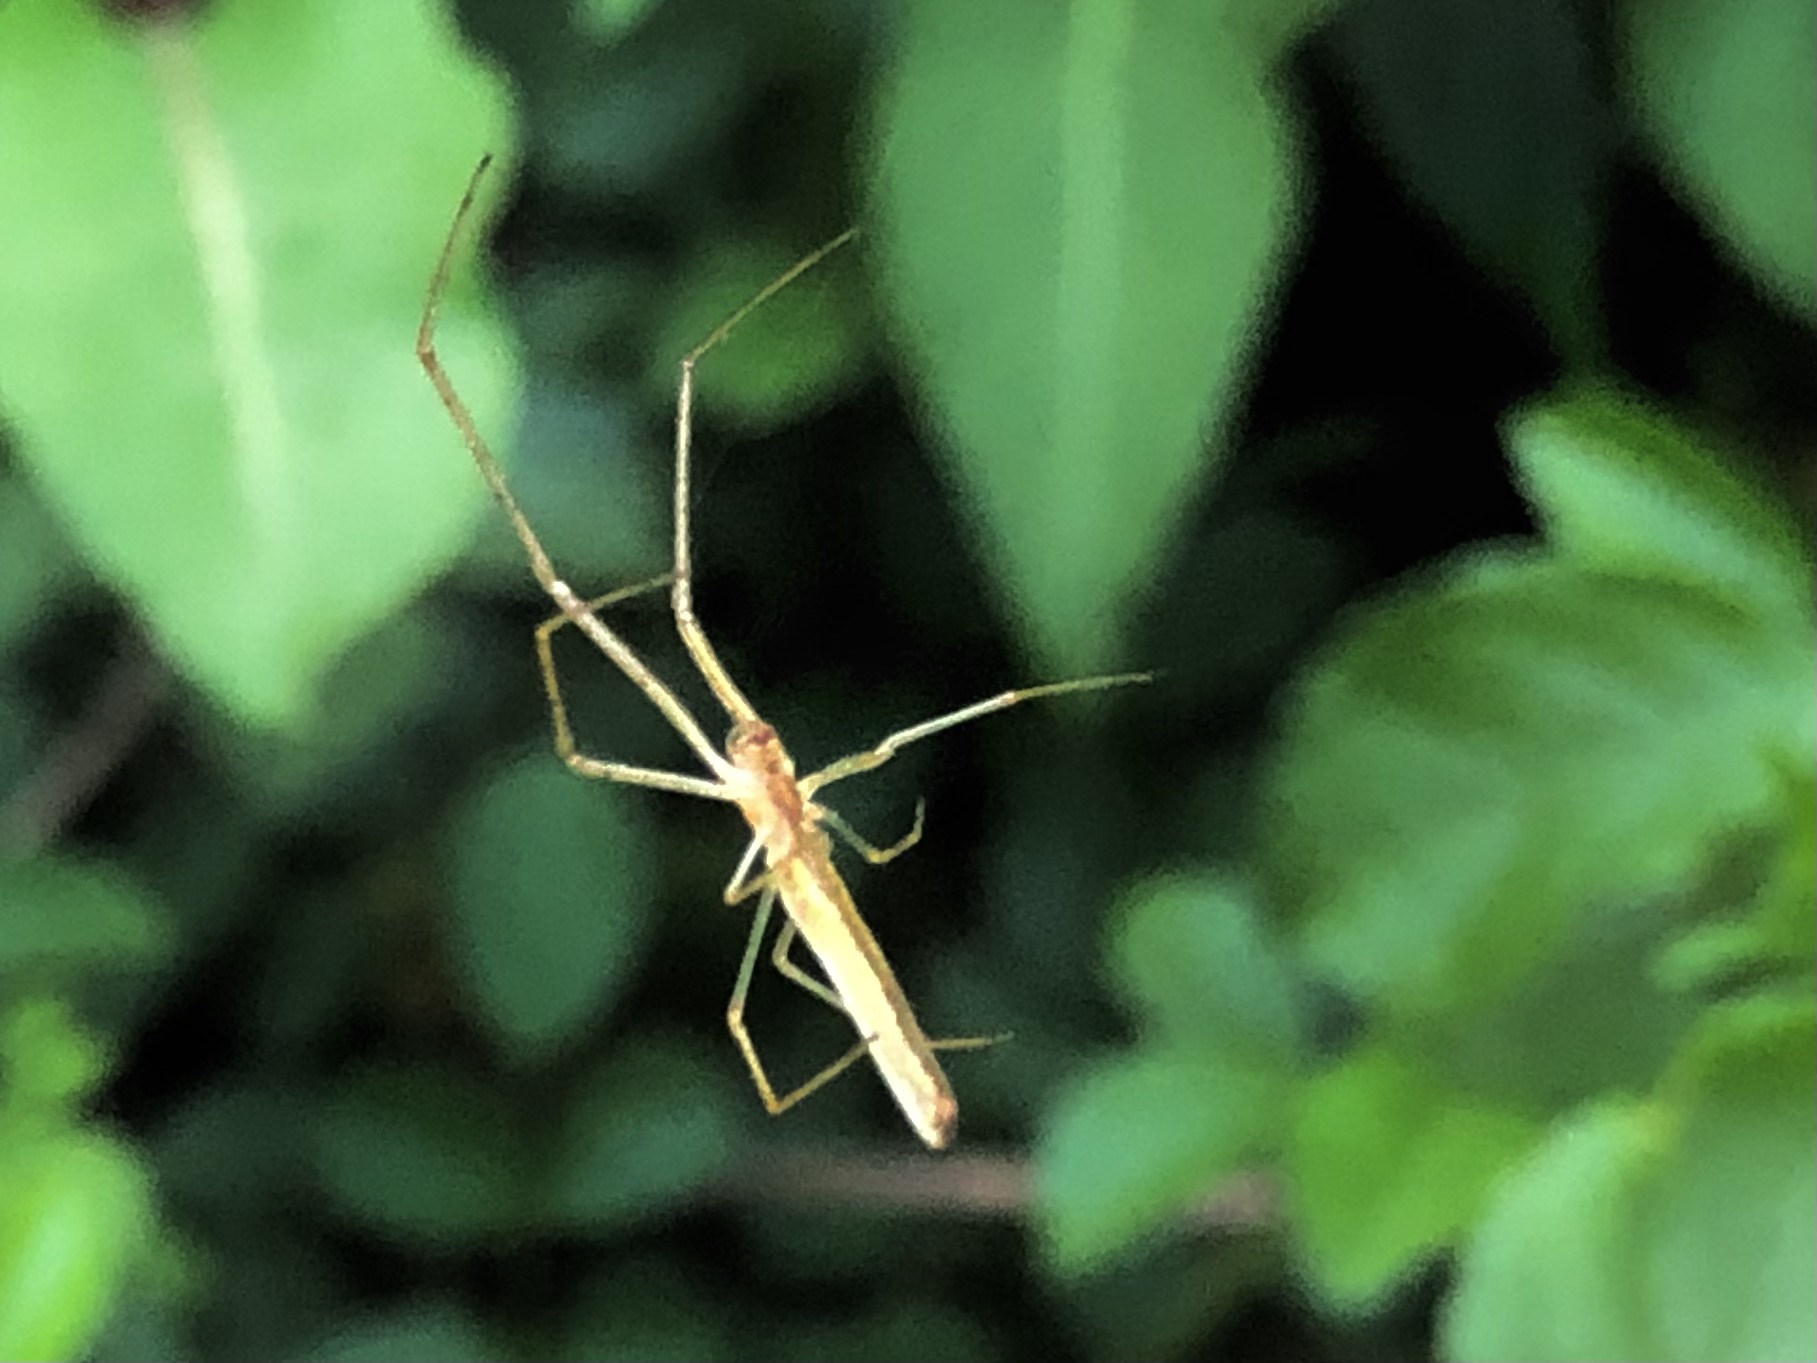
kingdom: Animalia
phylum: Arthropoda
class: Arachnida
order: Araneae
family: Tetragnathidae
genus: Tetragnatha
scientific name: Tetragnatha
